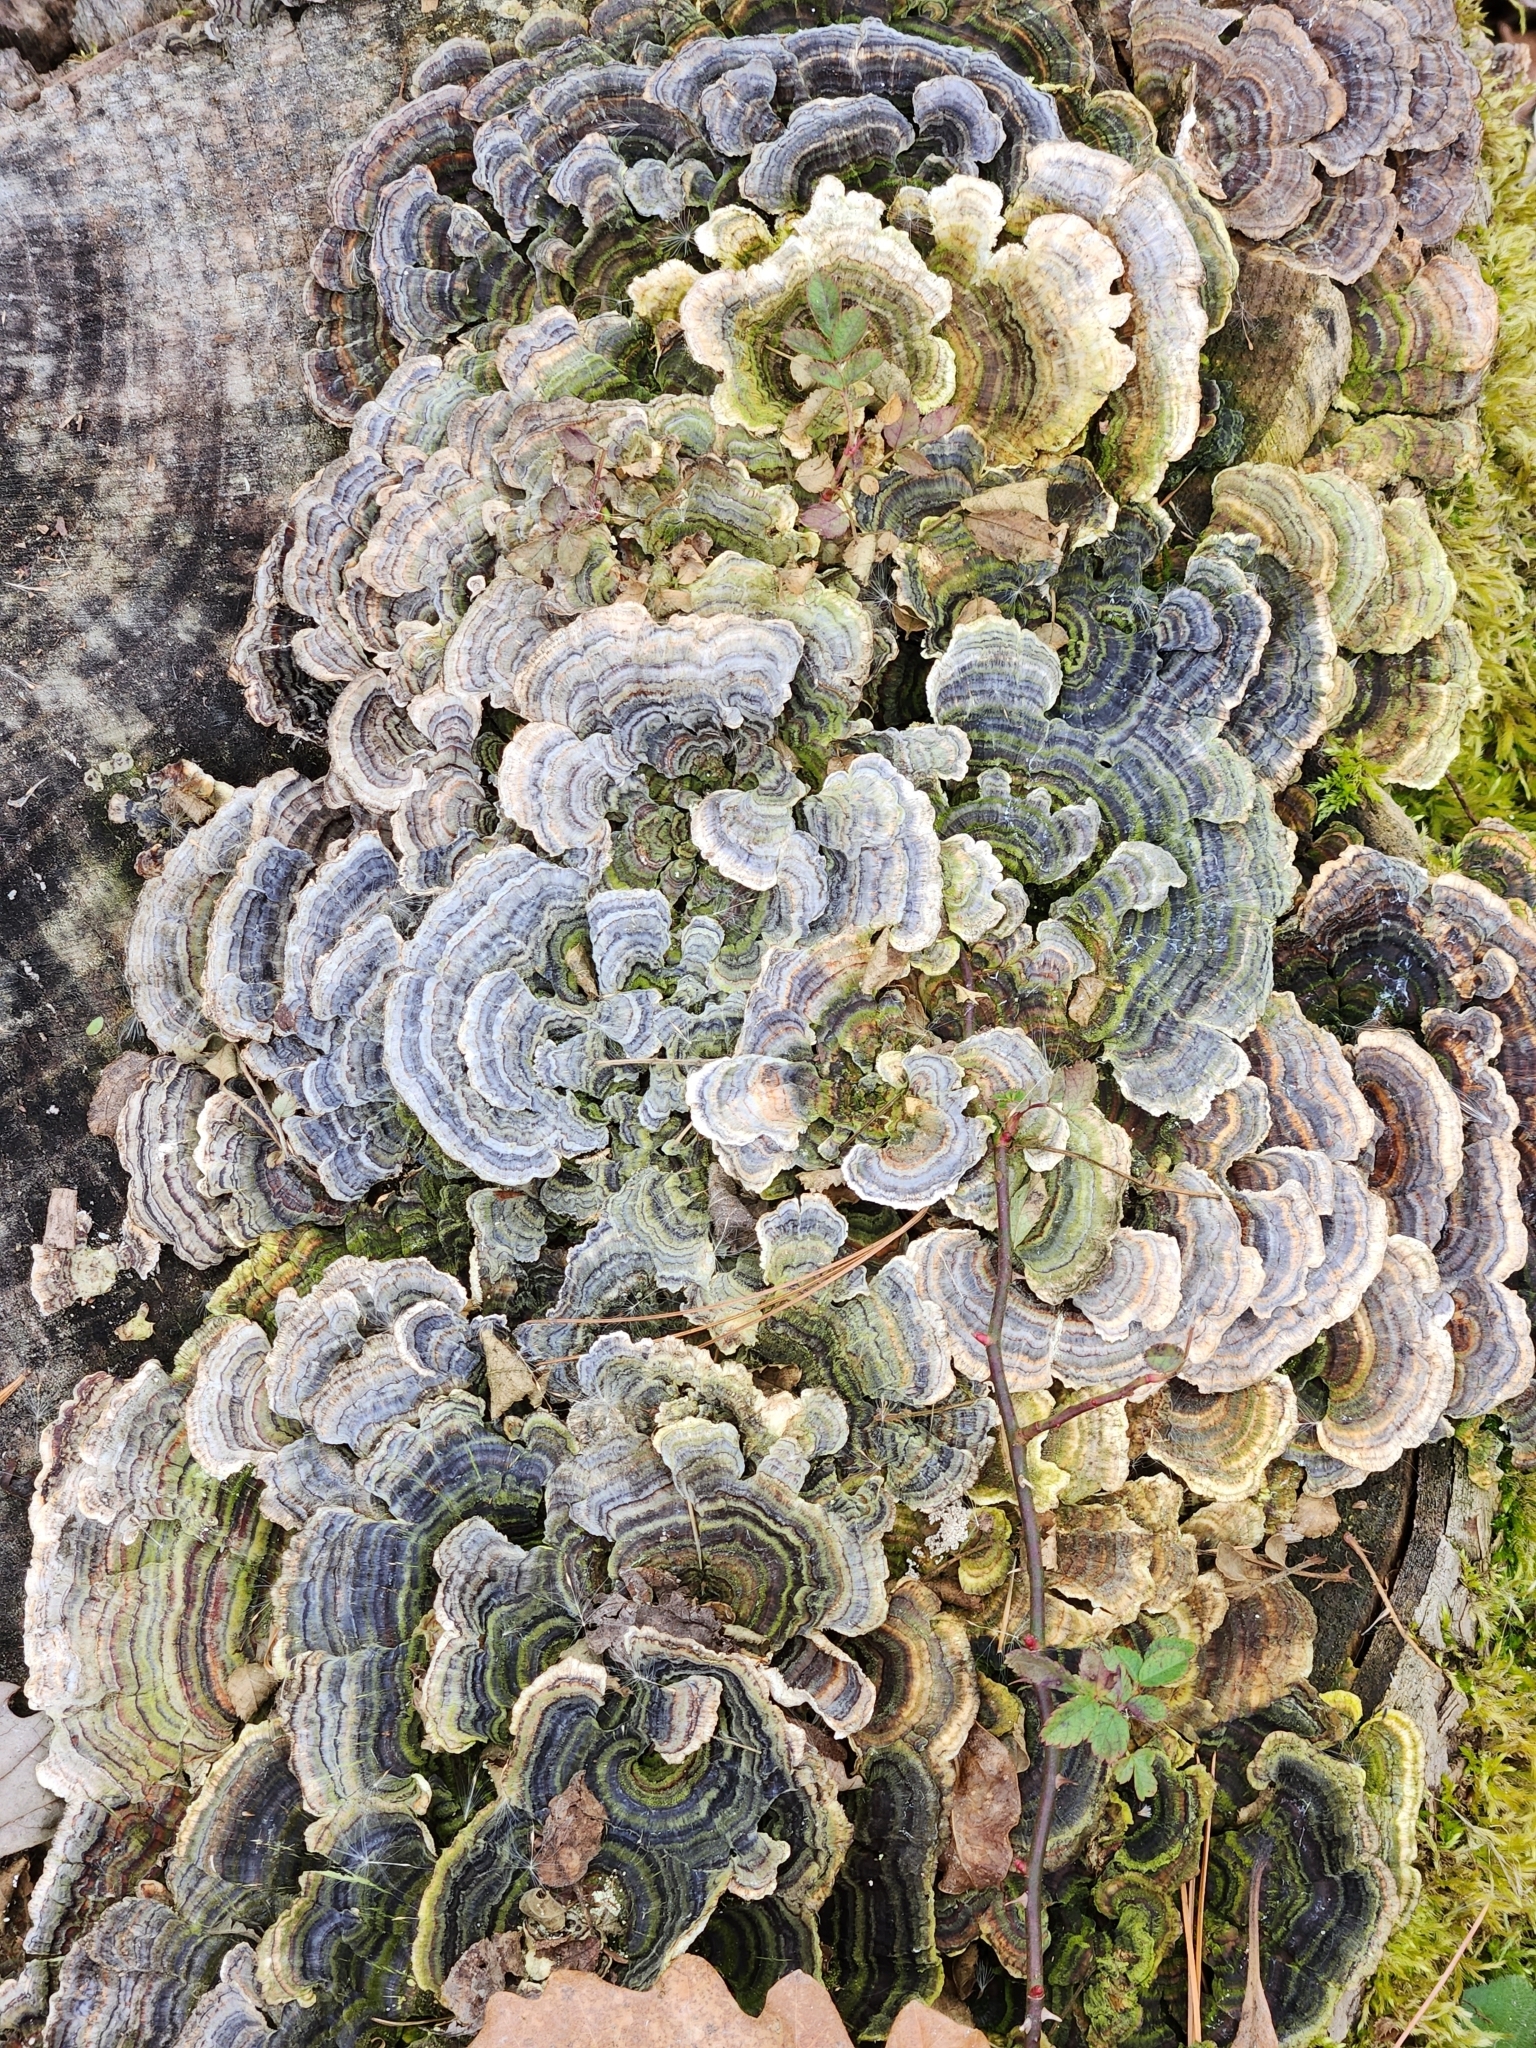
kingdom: Fungi
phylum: Basidiomycota
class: Agaricomycetes
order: Polyporales
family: Polyporaceae
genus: Trametes
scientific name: Trametes versicolor
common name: Turkeytail
